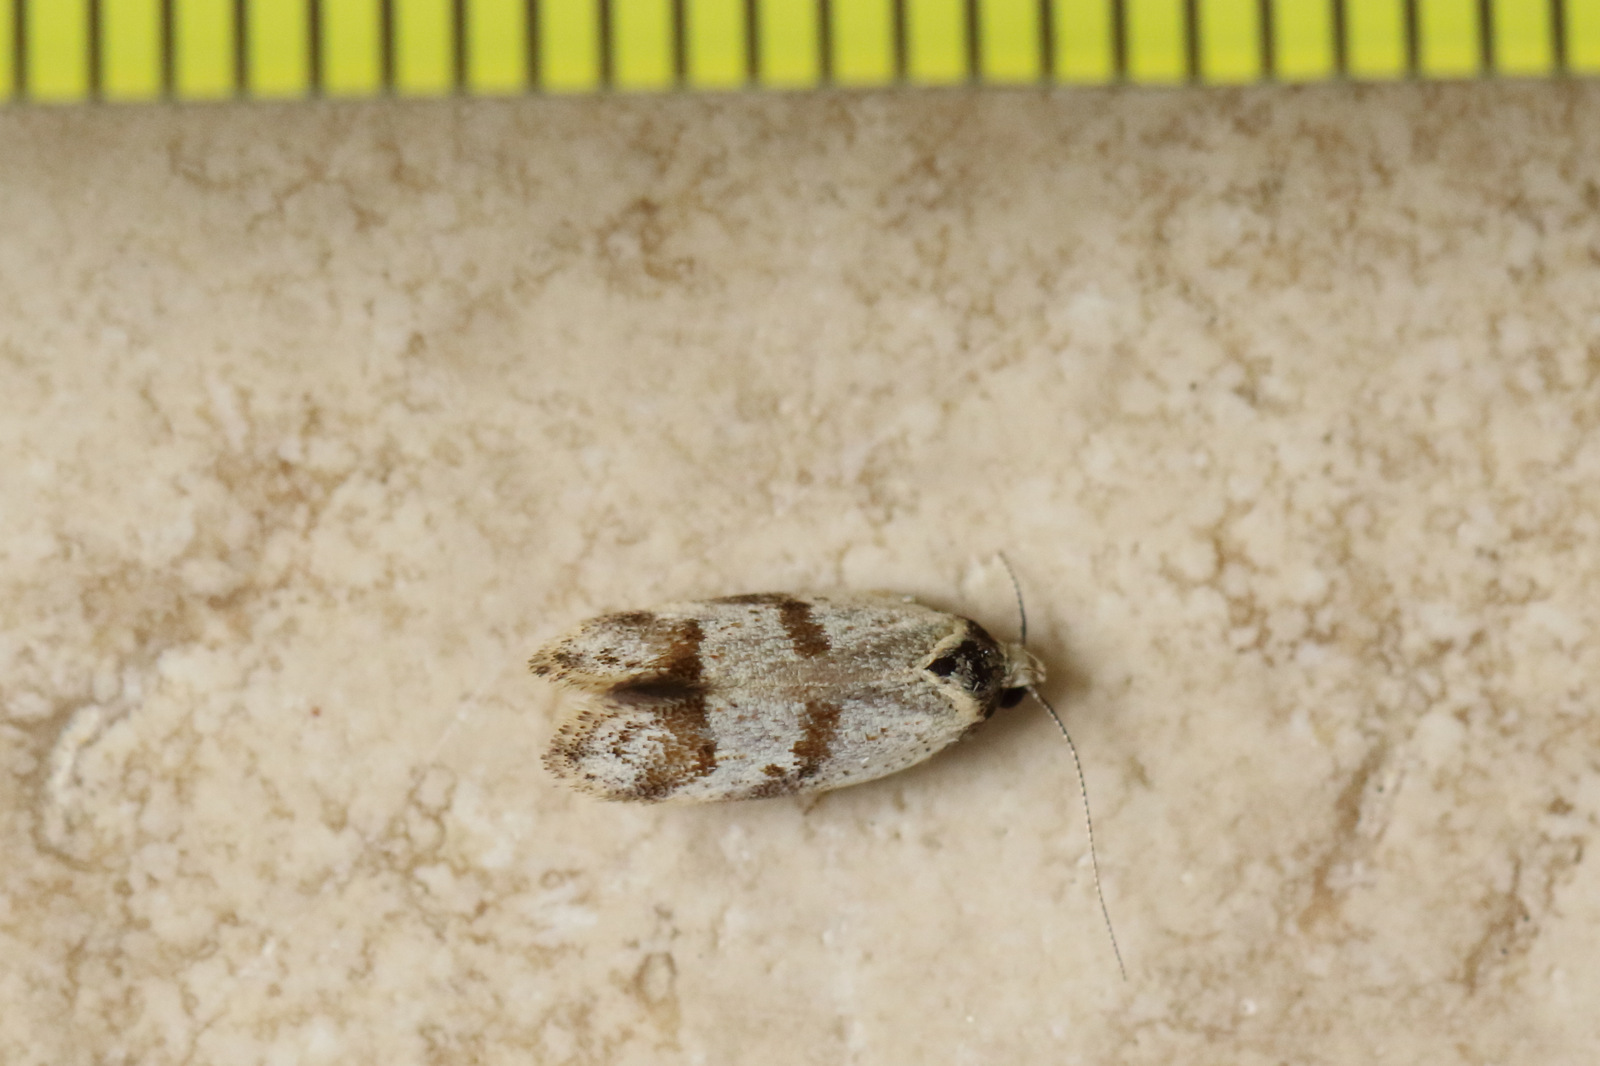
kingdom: Animalia
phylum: Arthropoda
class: Insecta
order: Lepidoptera
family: Oecophoridae
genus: Philobota
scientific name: Philobota curvilinea
